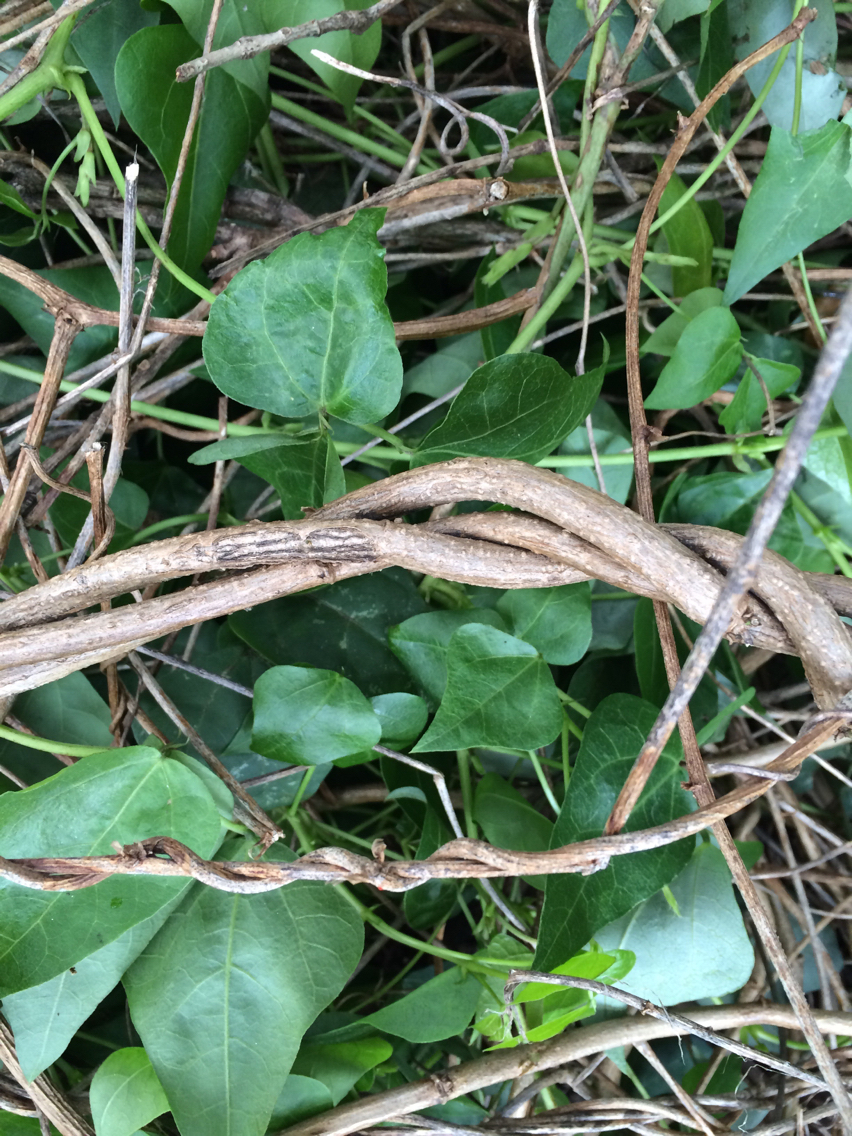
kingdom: Plantae
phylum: Tracheophyta
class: Magnoliopsida
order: Fabales
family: Fabaceae
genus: Dipogon
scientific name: Dipogon lignosus
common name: Okie bean
